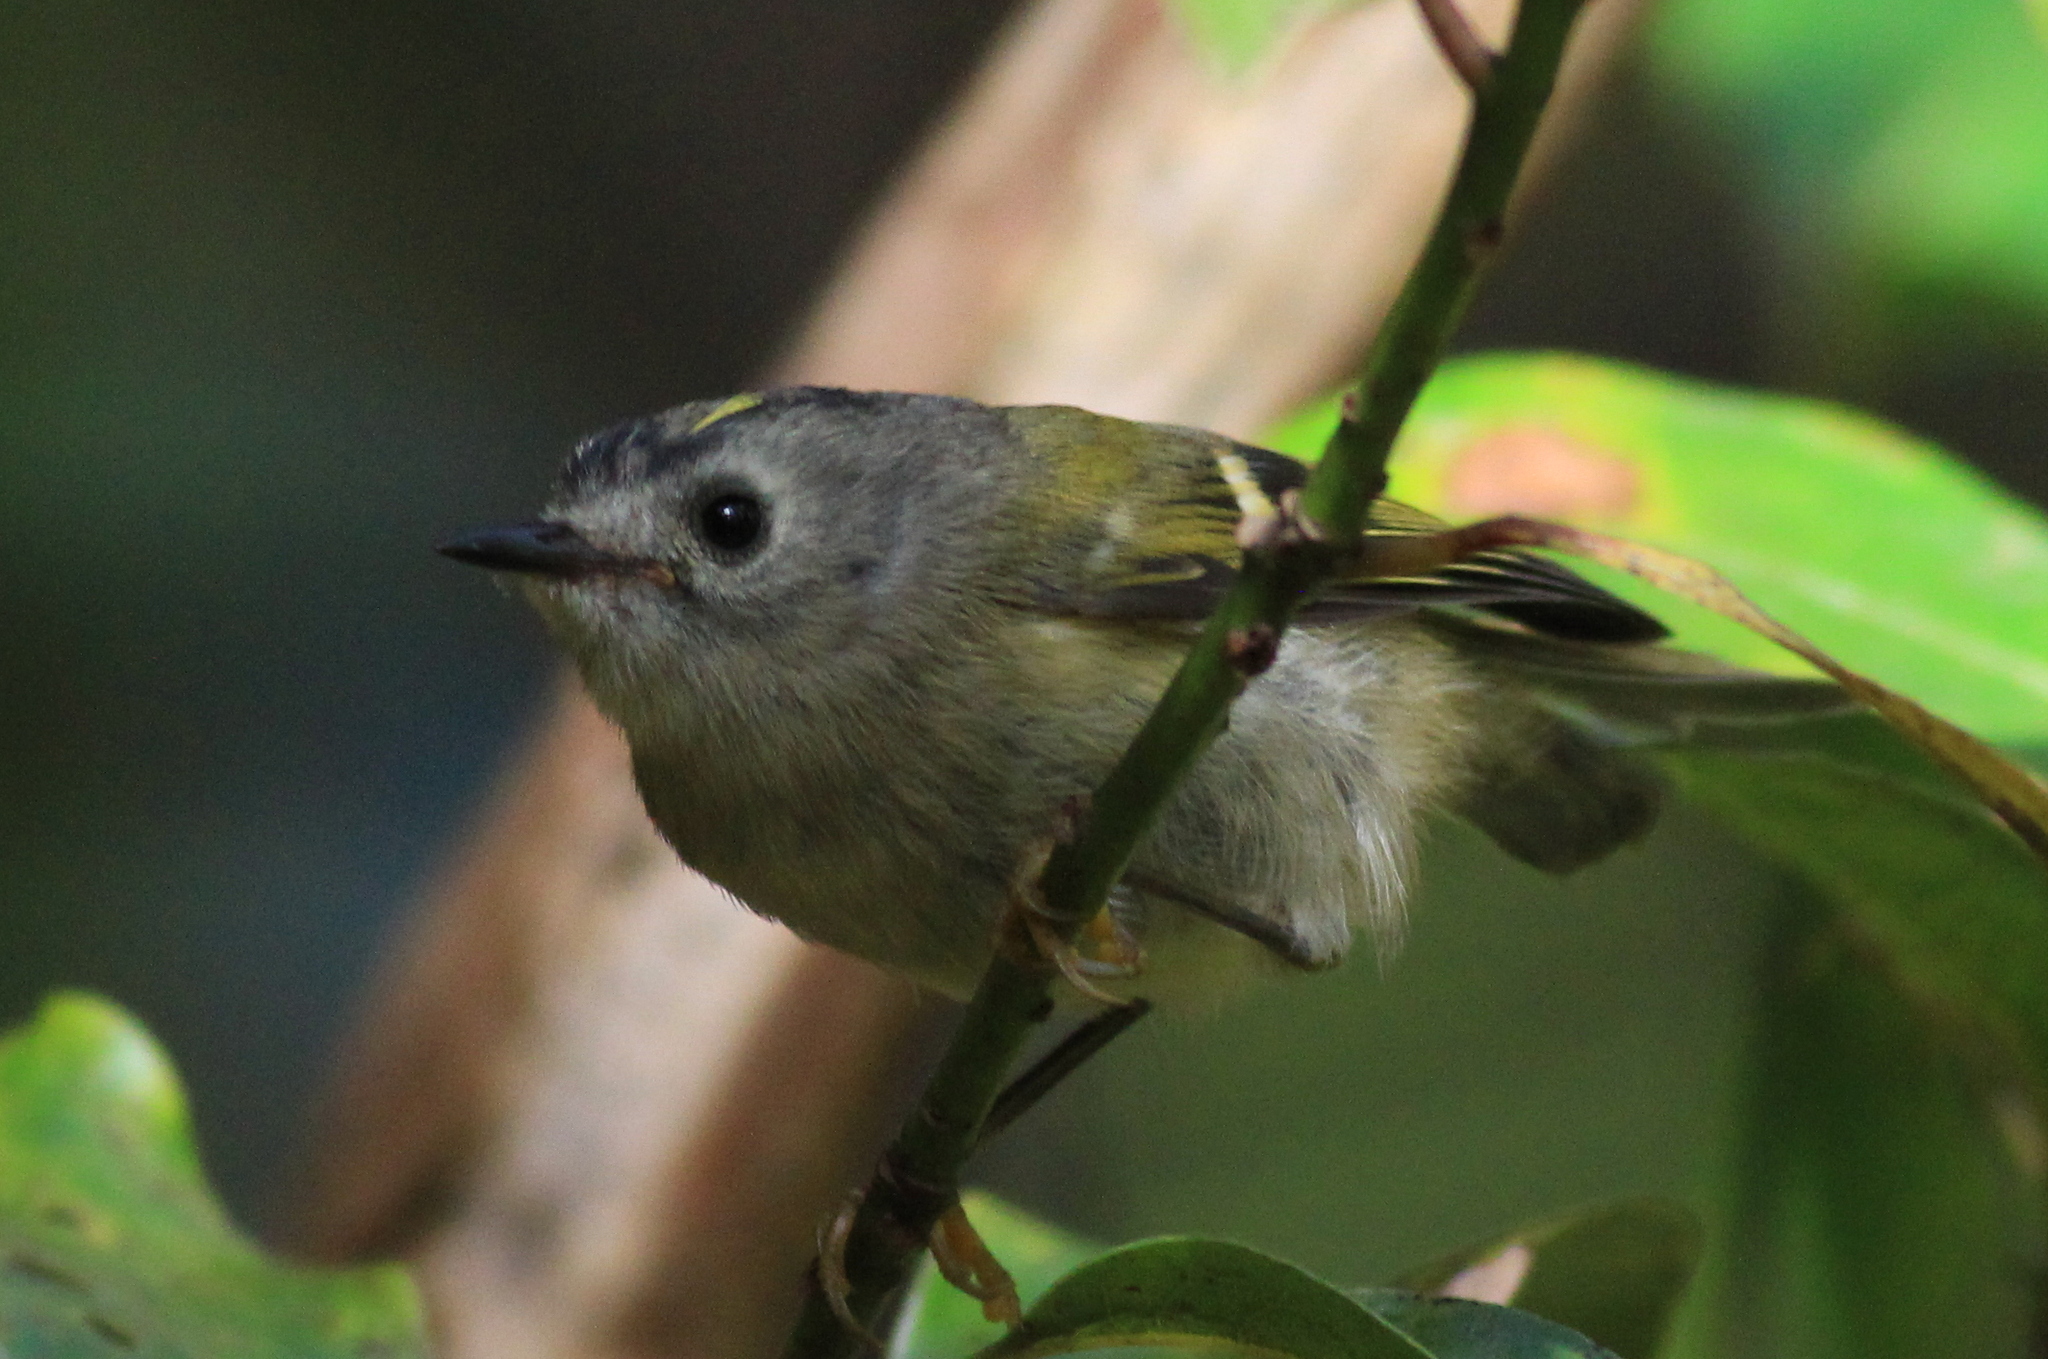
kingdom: Animalia
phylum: Chordata
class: Aves
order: Passeriformes
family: Regulidae
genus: Regulus
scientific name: Regulus regulus
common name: Goldcrest
